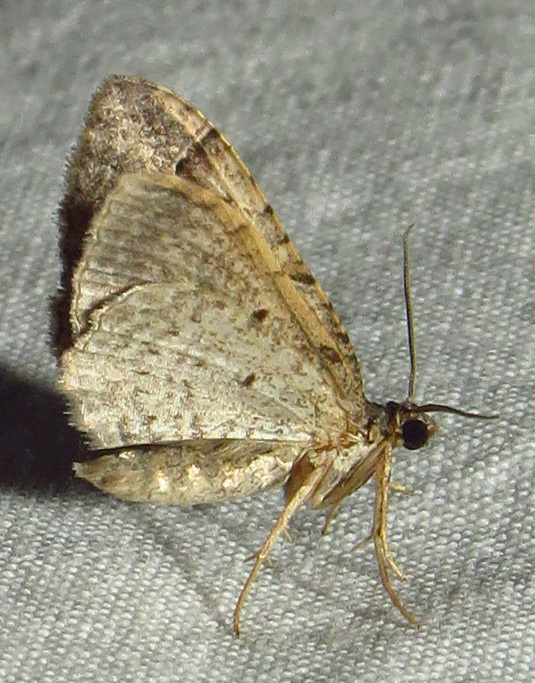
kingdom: Animalia
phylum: Arthropoda
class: Insecta
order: Lepidoptera
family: Geometridae
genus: Costaconvexa
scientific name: Costaconvexa centrostrigaria
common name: Bent-line carpet
